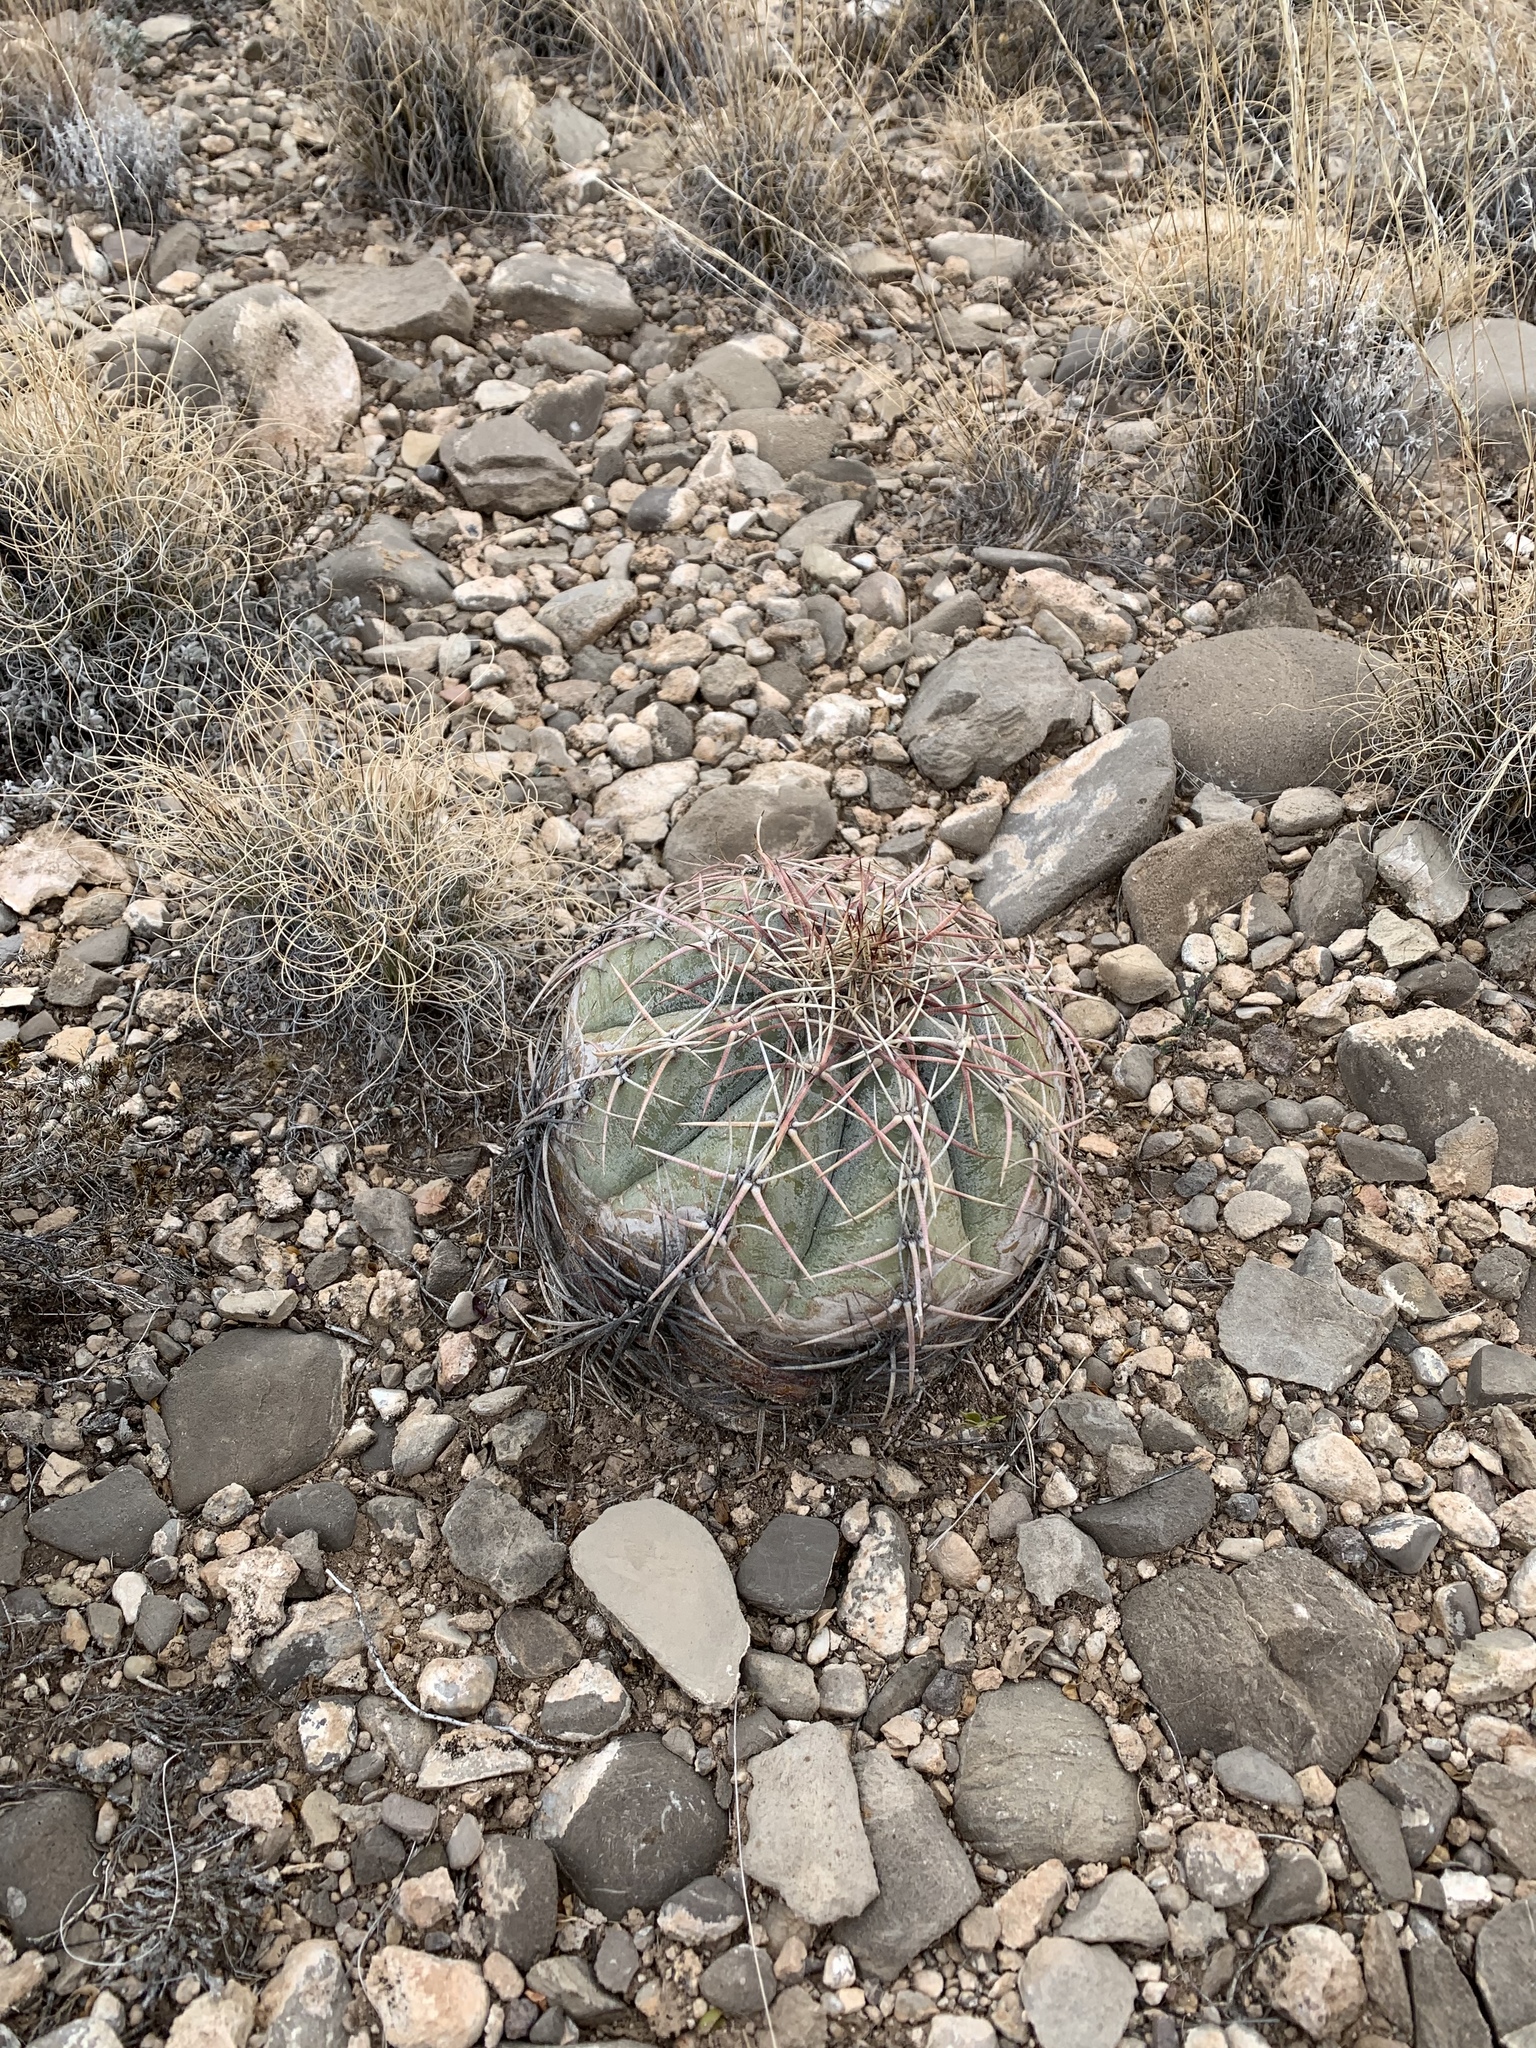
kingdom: Plantae
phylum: Tracheophyta
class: Magnoliopsida
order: Caryophyllales
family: Cactaceae
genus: Echinocactus
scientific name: Echinocactus horizonthalonius
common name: Devilshead
